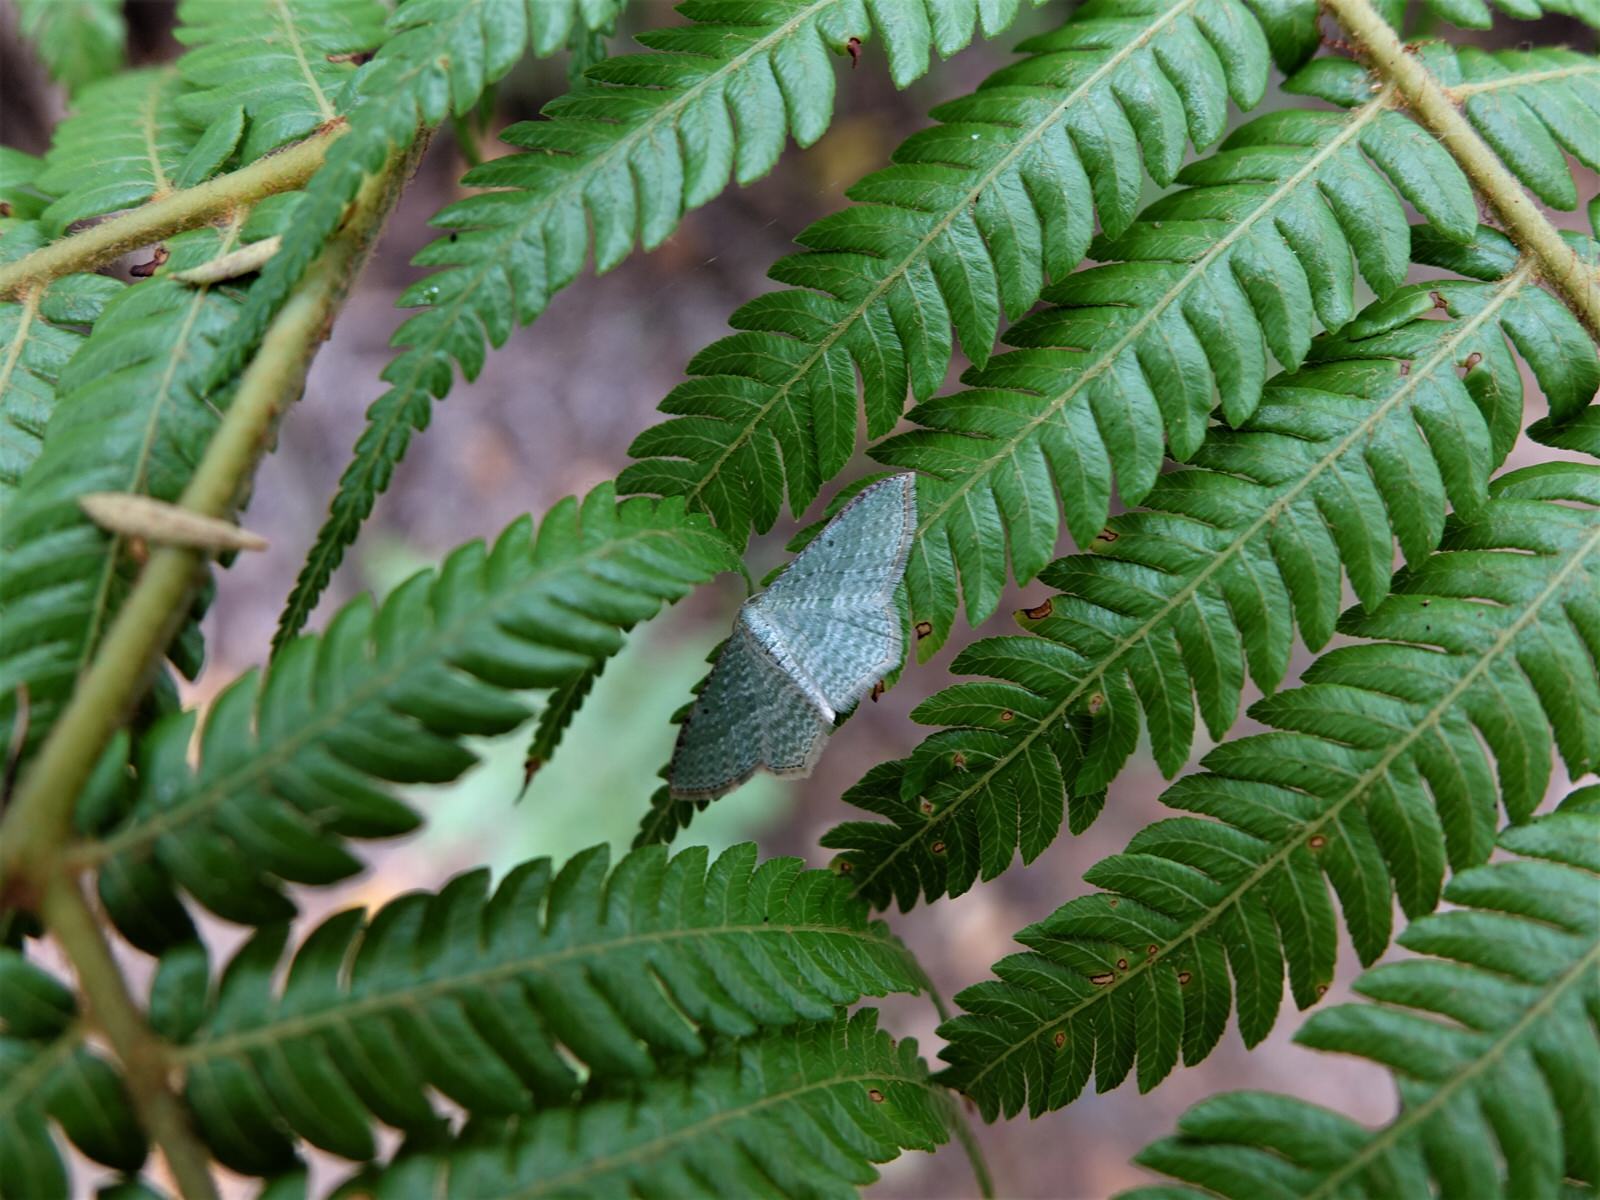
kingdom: Animalia
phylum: Arthropoda
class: Insecta
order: Lepidoptera
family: Geometridae
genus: Poecilasthena
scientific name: Poecilasthena pulchraria
